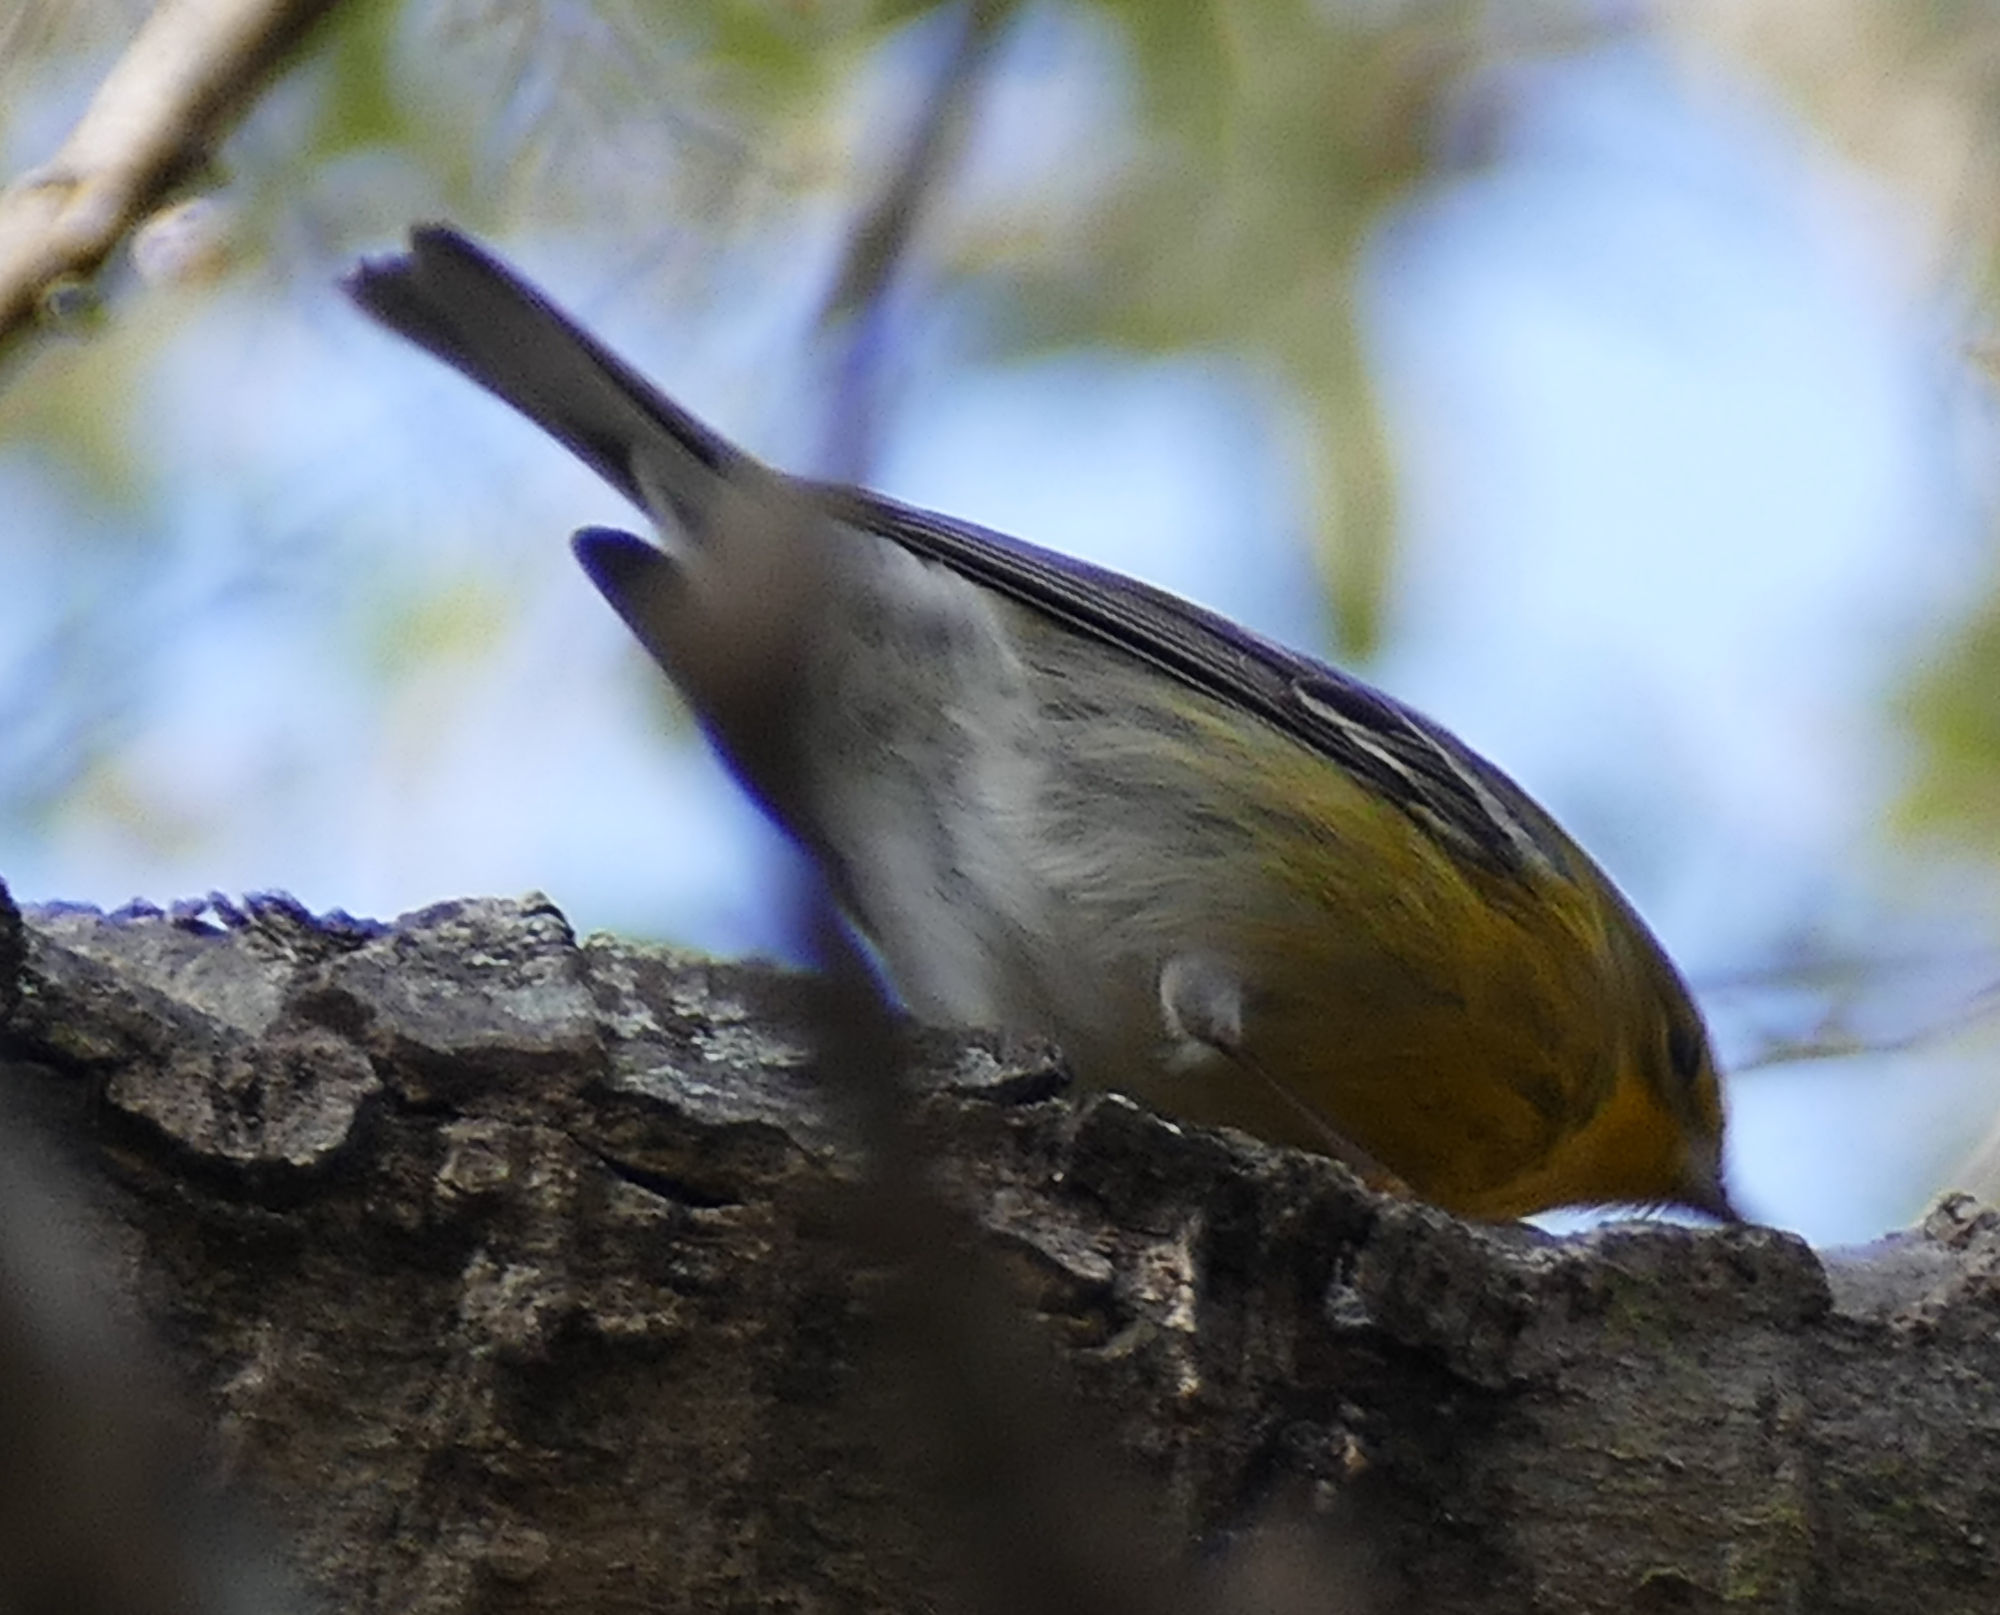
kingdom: Animalia
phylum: Chordata
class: Aves
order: Passeriformes
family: Parulidae
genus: Setophaga
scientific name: Setophaga pinus
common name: Pine warbler
